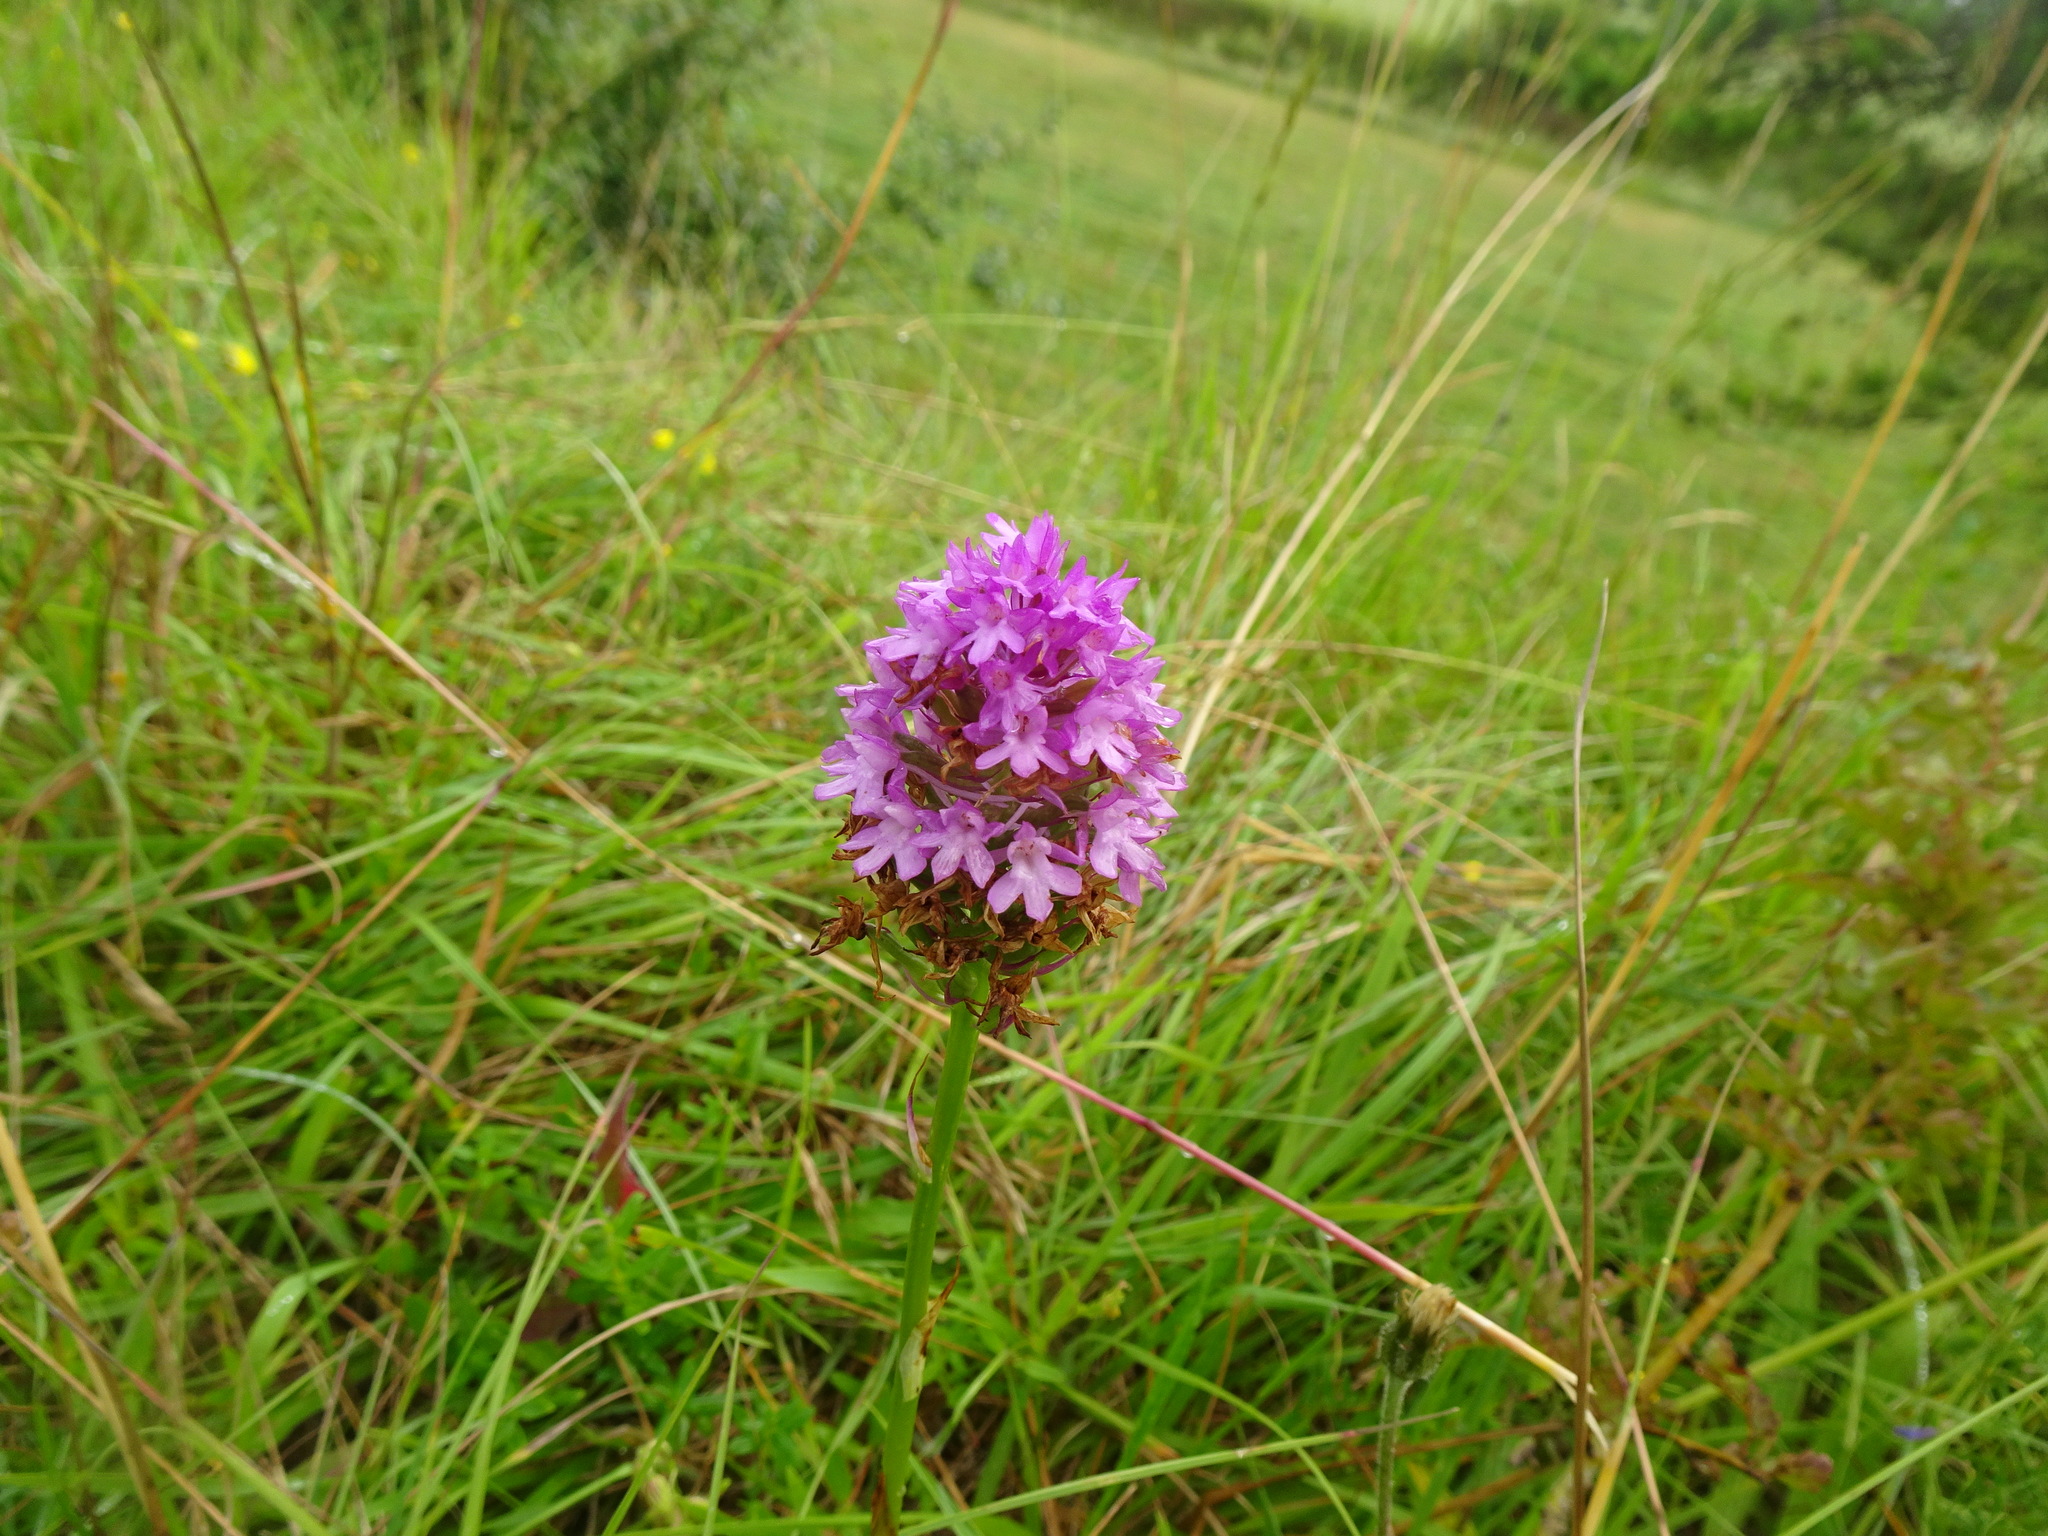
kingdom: Plantae
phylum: Tracheophyta
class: Liliopsida
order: Asparagales
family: Orchidaceae
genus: Anacamptis
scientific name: Anacamptis pyramidalis
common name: Pyramidal orchid
